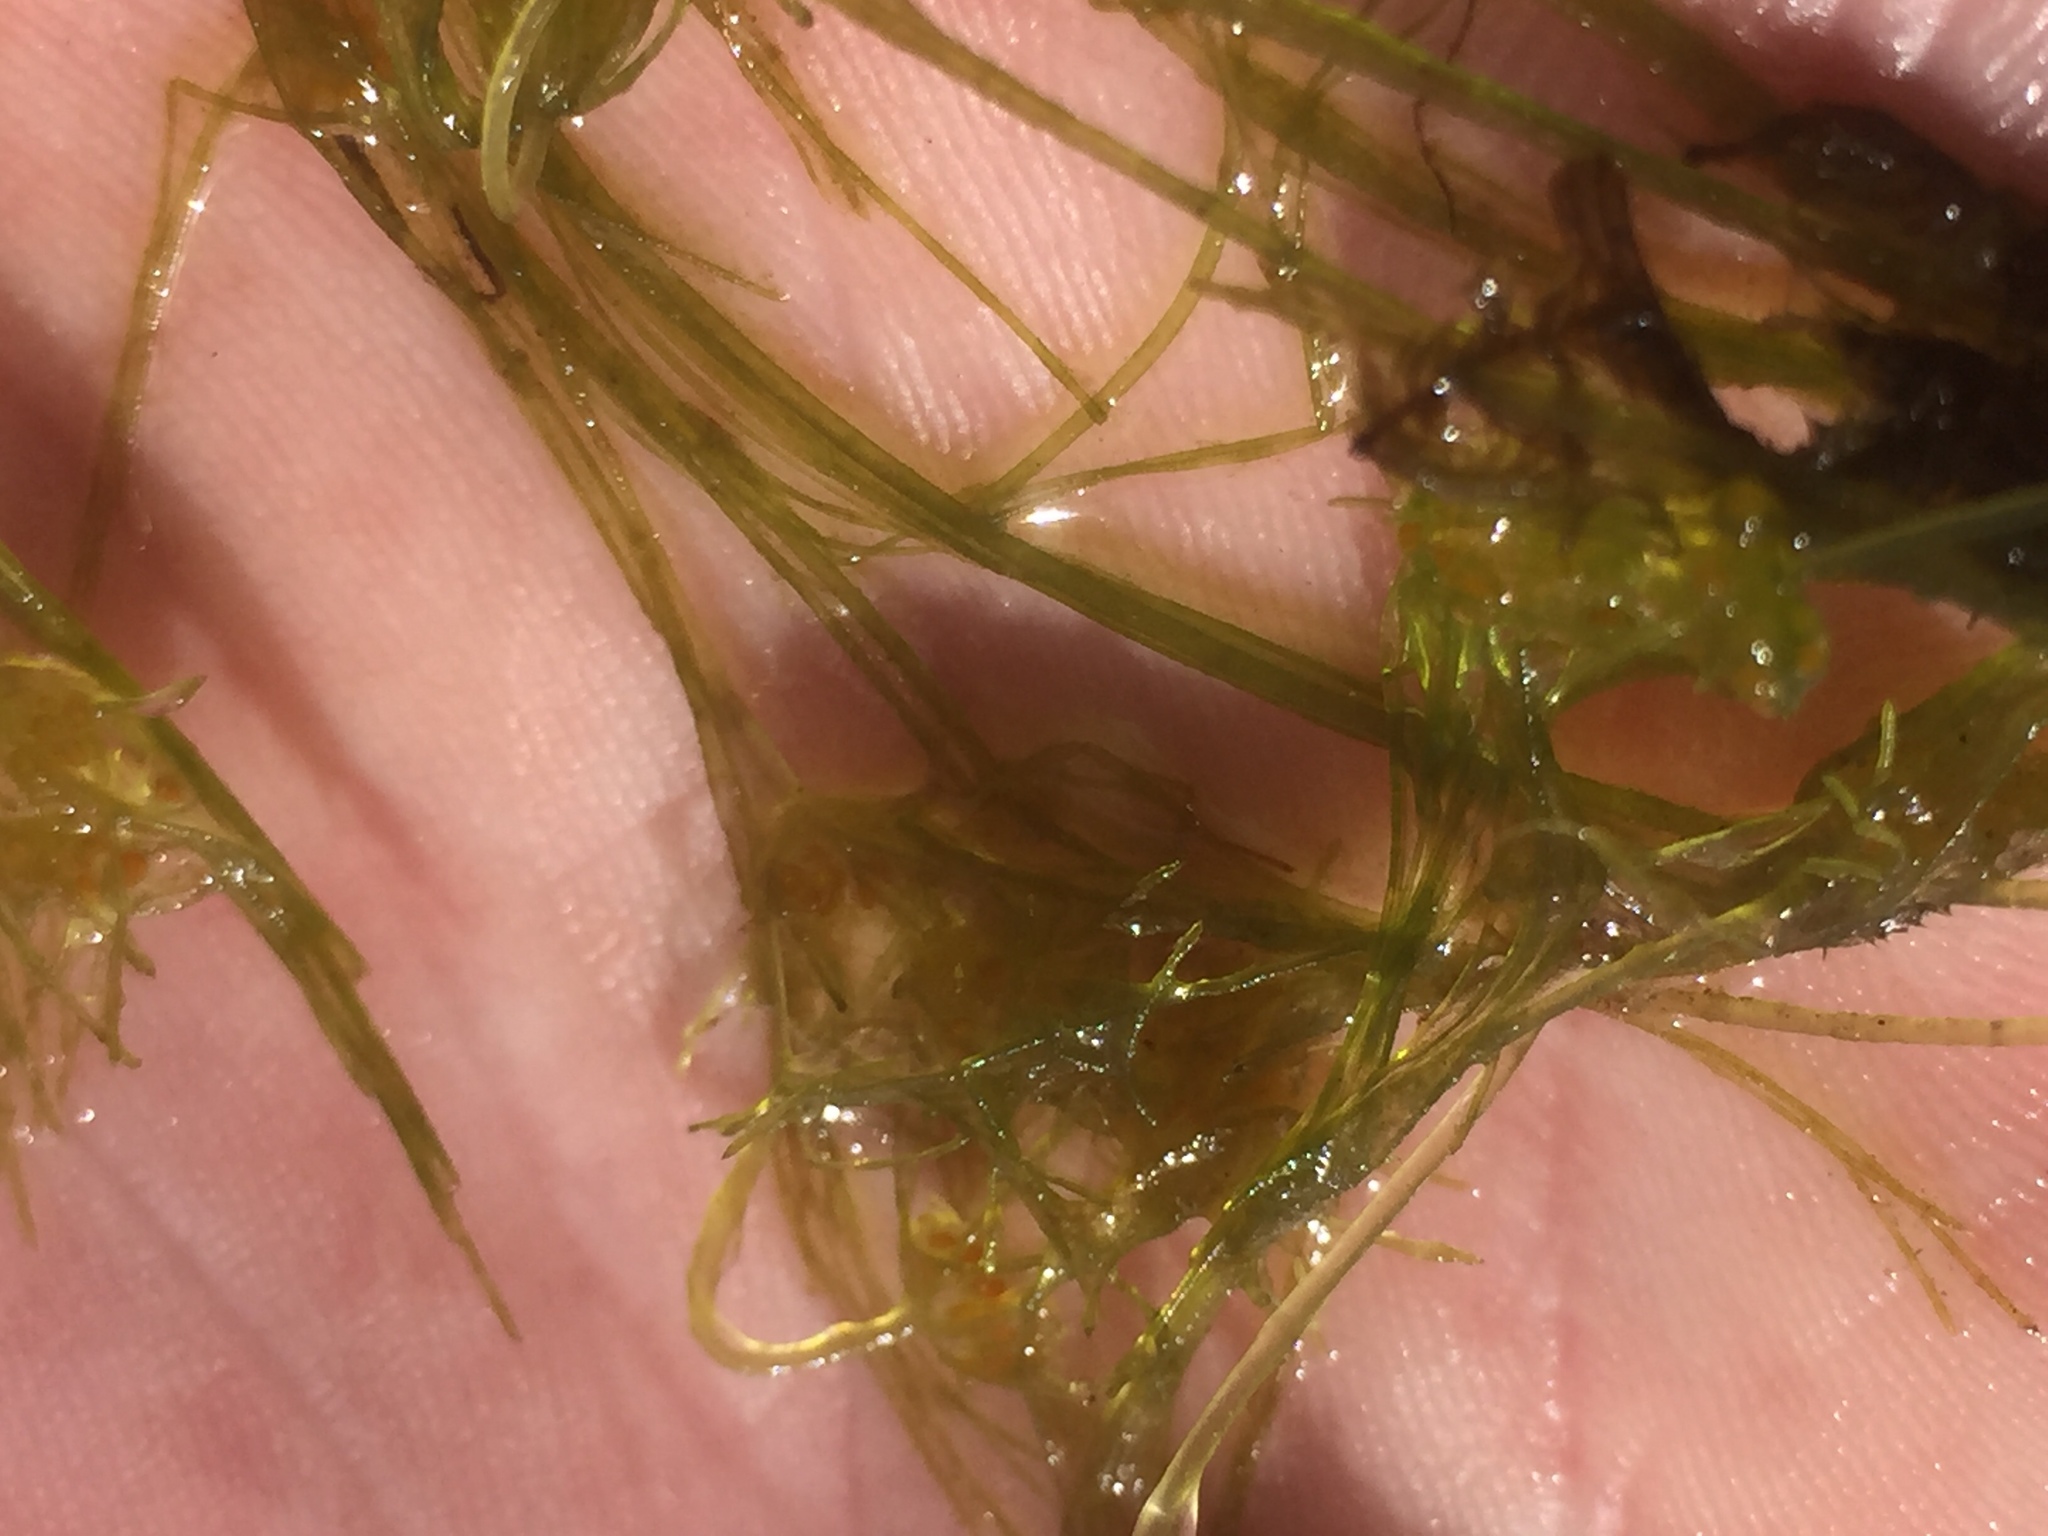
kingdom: Plantae
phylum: Charophyta
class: Charophyceae
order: Charales
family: Characeae
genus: Nitella
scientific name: Nitella capillaris
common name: Slimy-fruited stonewort
